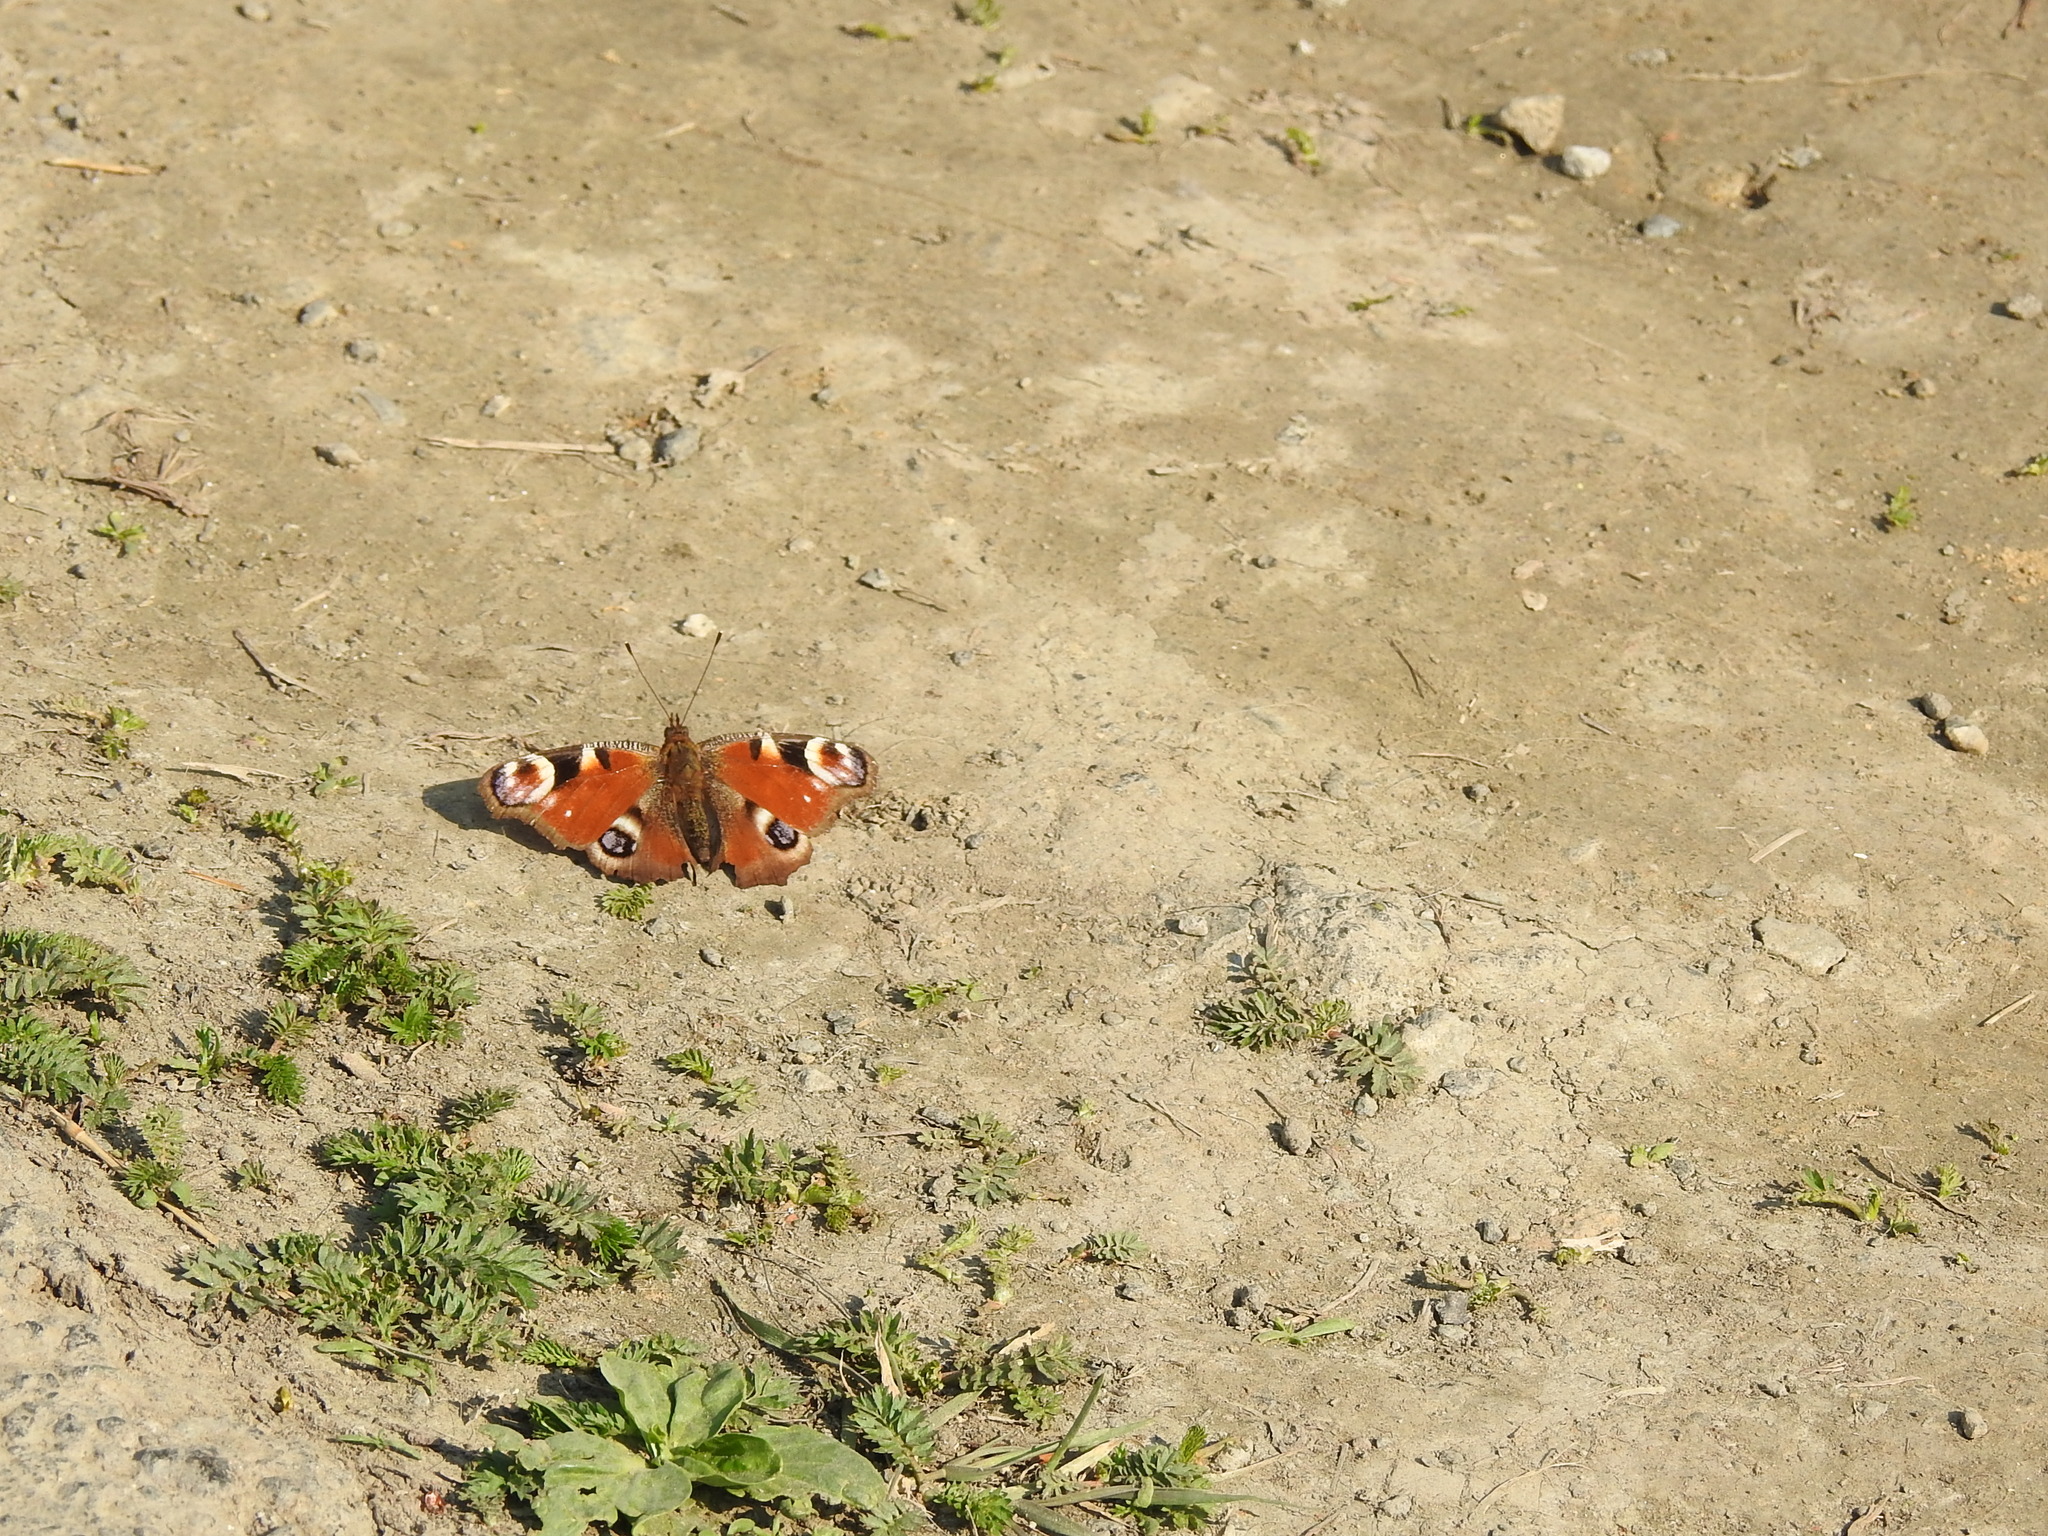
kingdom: Animalia
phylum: Arthropoda
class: Insecta
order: Lepidoptera
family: Nymphalidae
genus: Aglais
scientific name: Aglais io
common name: Peacock
